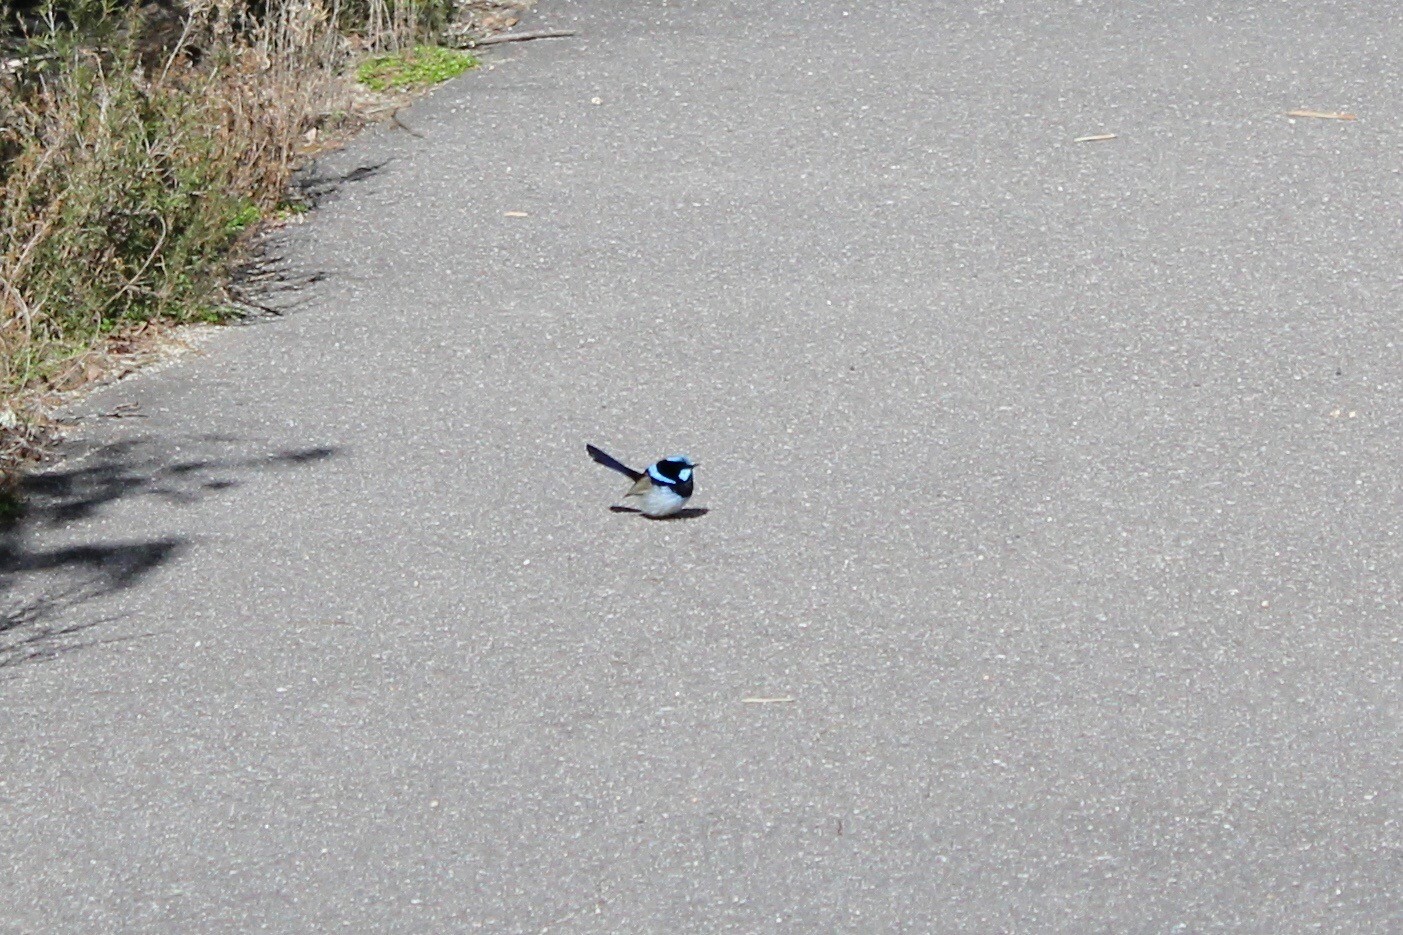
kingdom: Animalia
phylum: Chordata
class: Aves
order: Passeriformes
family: Maluridae
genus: Malurus
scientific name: Malurus cyaneus
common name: Superb fairywren
